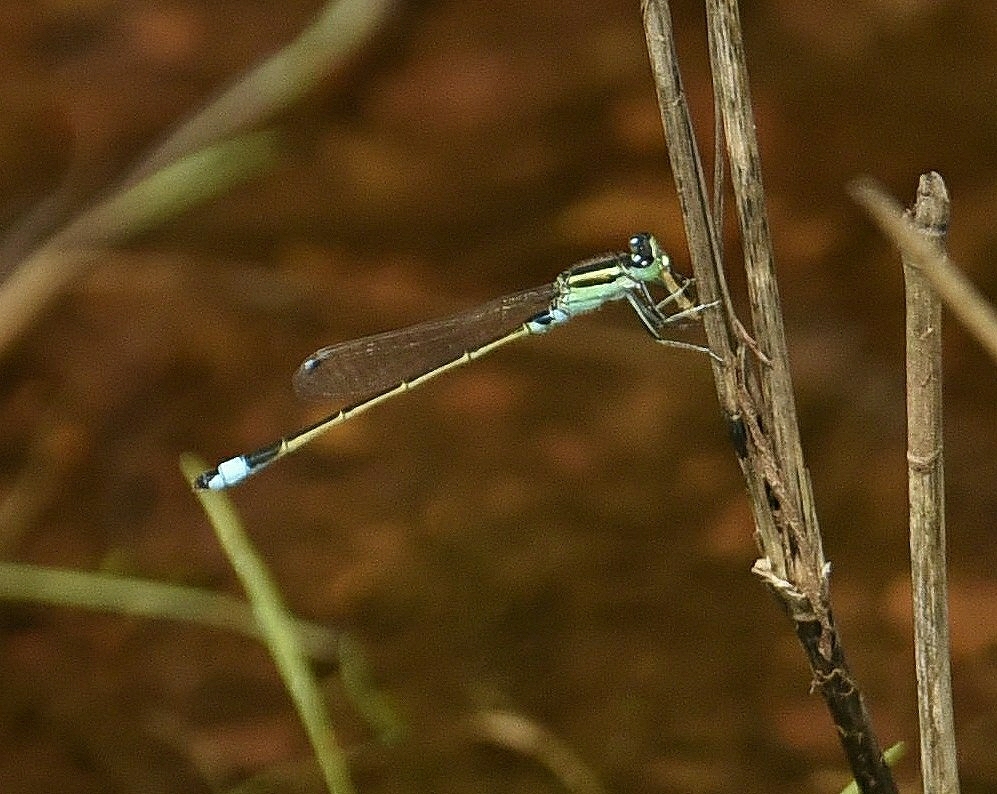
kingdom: Animalia
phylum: Arthropoda
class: Insecta
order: Odonata
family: Coenagrionidae
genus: Ischnura
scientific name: Ischnura senegalensis
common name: Tropical bluetail
